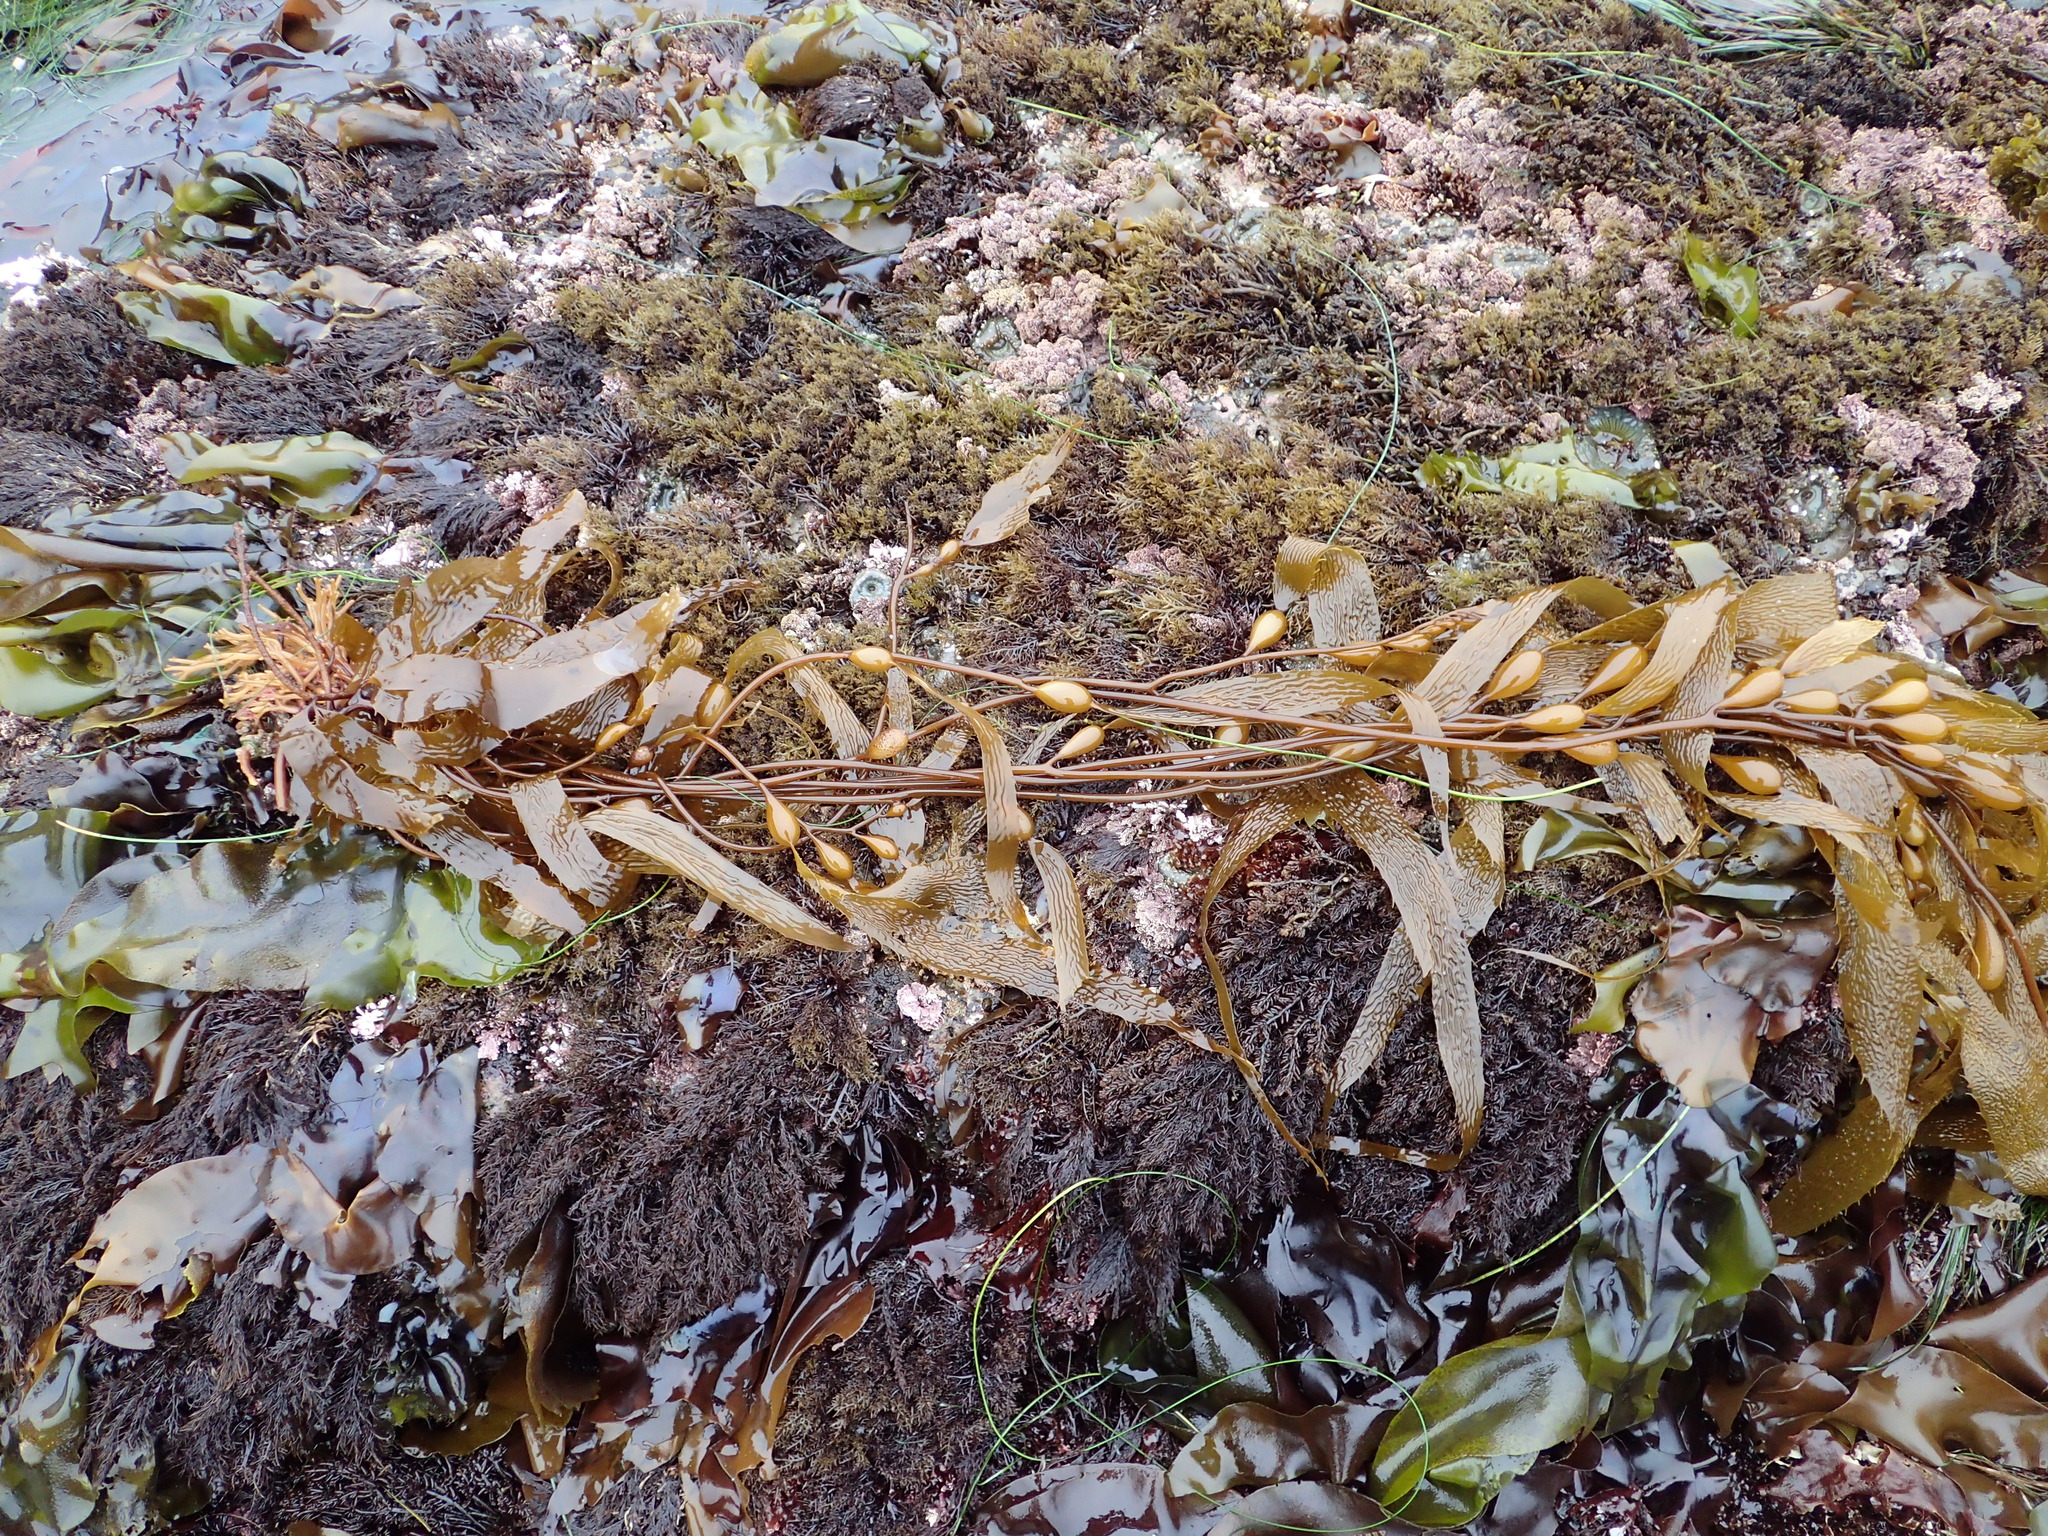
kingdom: Chromista
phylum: Ochrophyta
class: Phaeophyceae
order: Laminariales
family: Laminariaceae
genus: Macrocystis
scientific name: Macrocystis pyrifera
